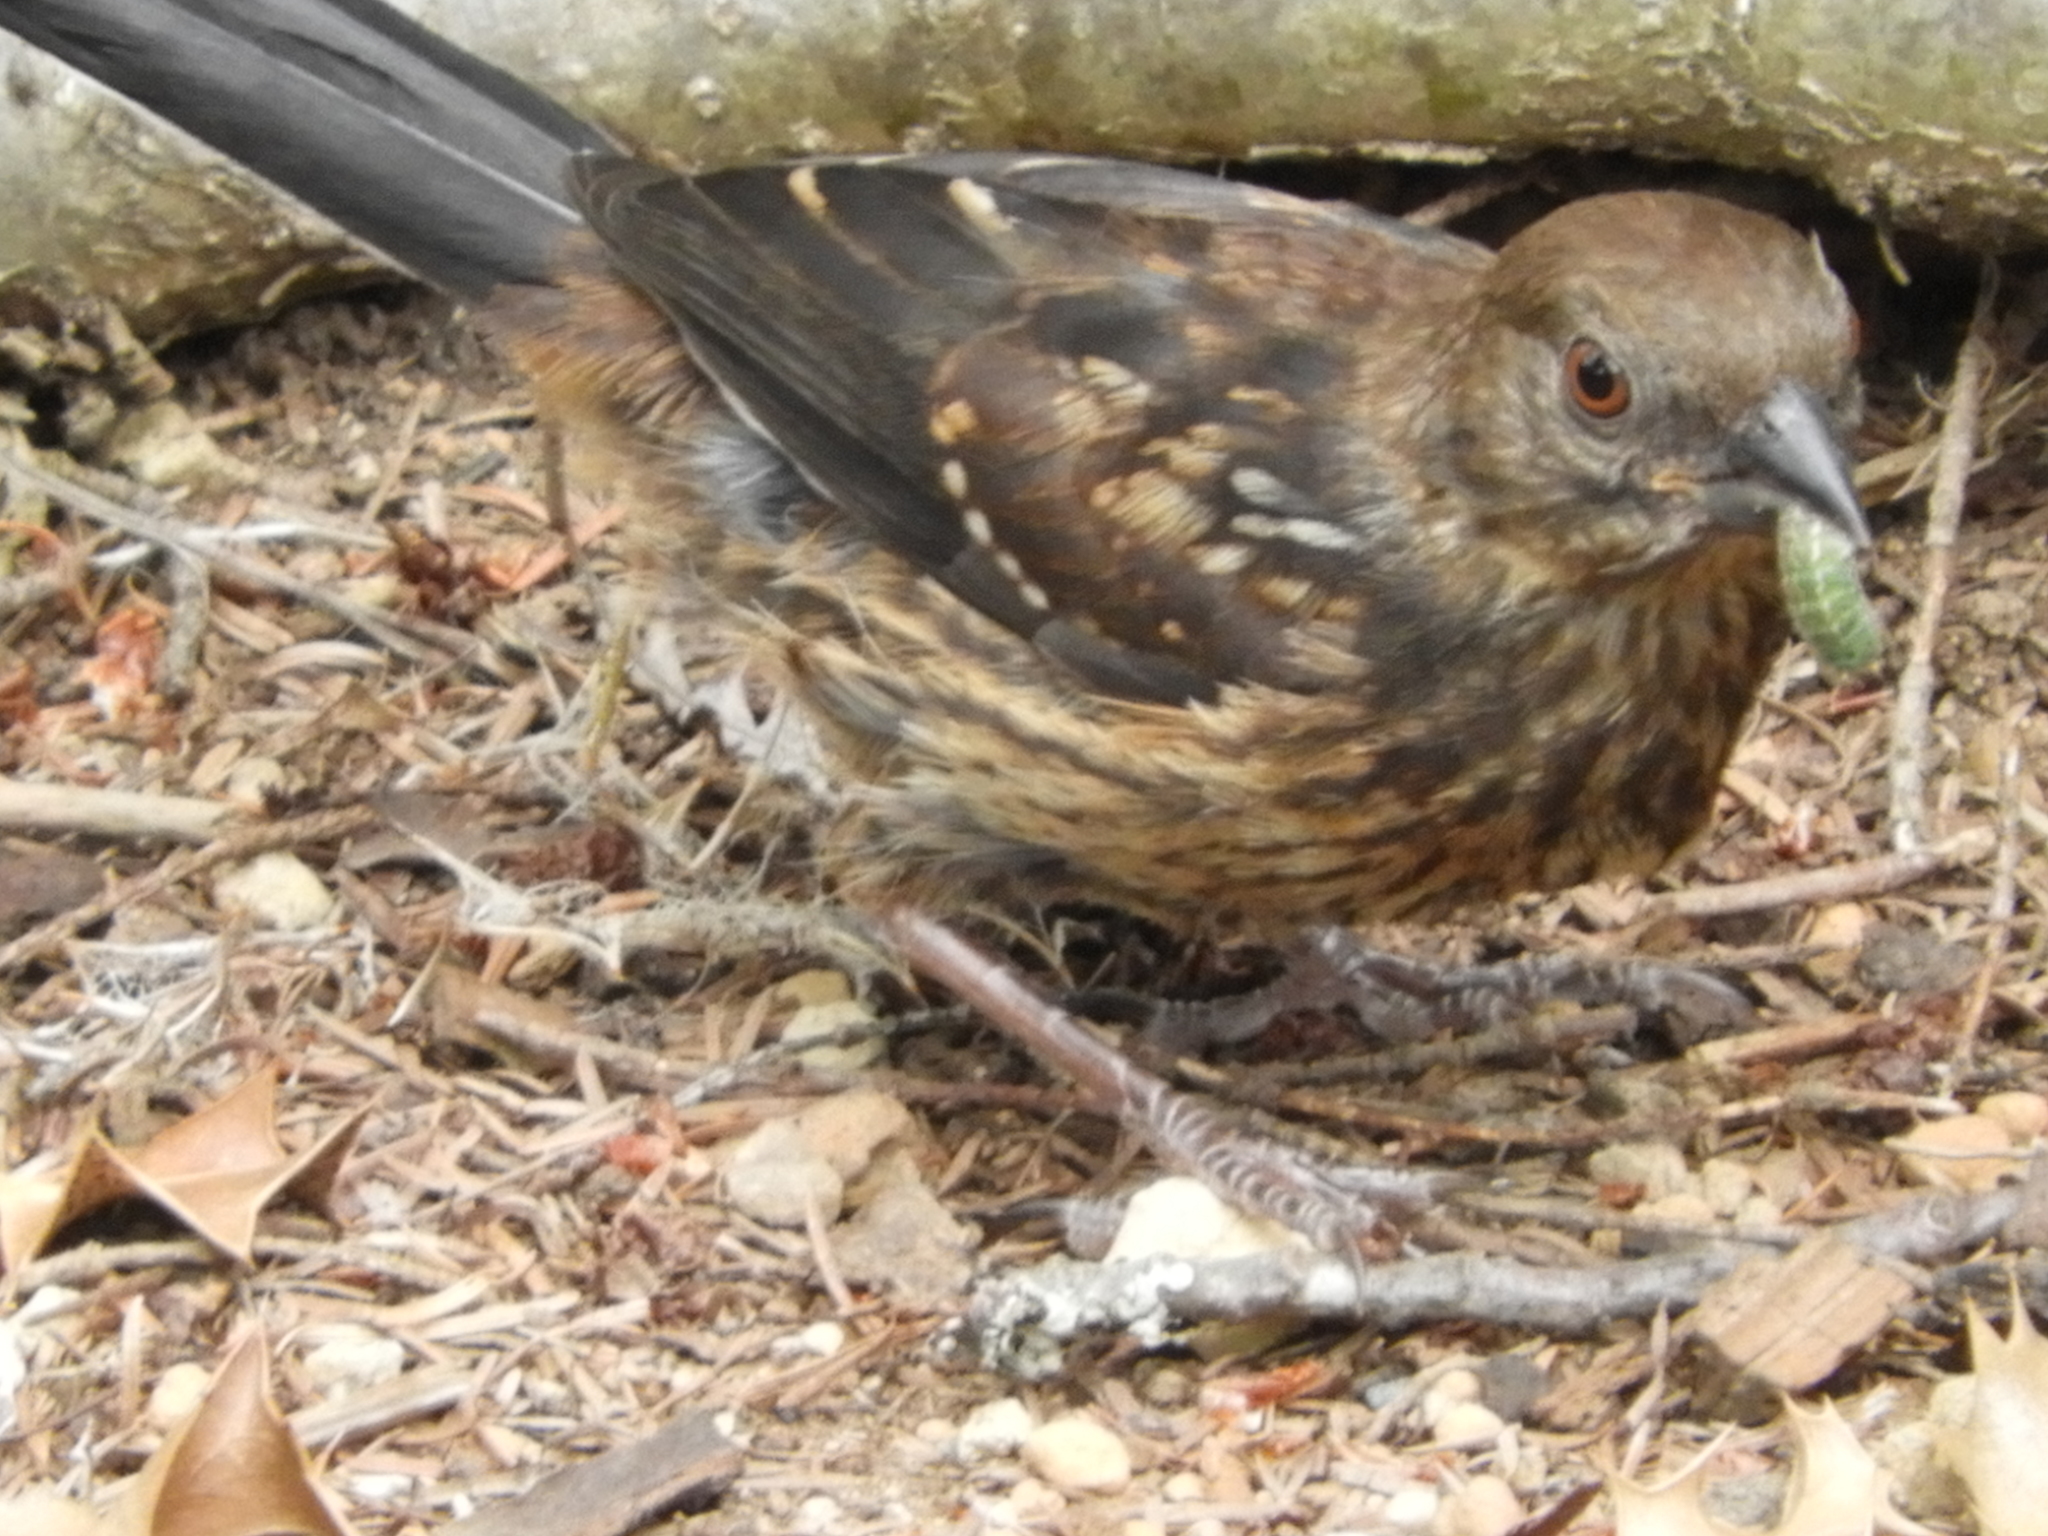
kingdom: Animalia
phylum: Chordata
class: Aves
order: Passeriformes
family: Passerellidae
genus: Pipilo
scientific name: Pipilo maculatus
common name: Spotted towhee
